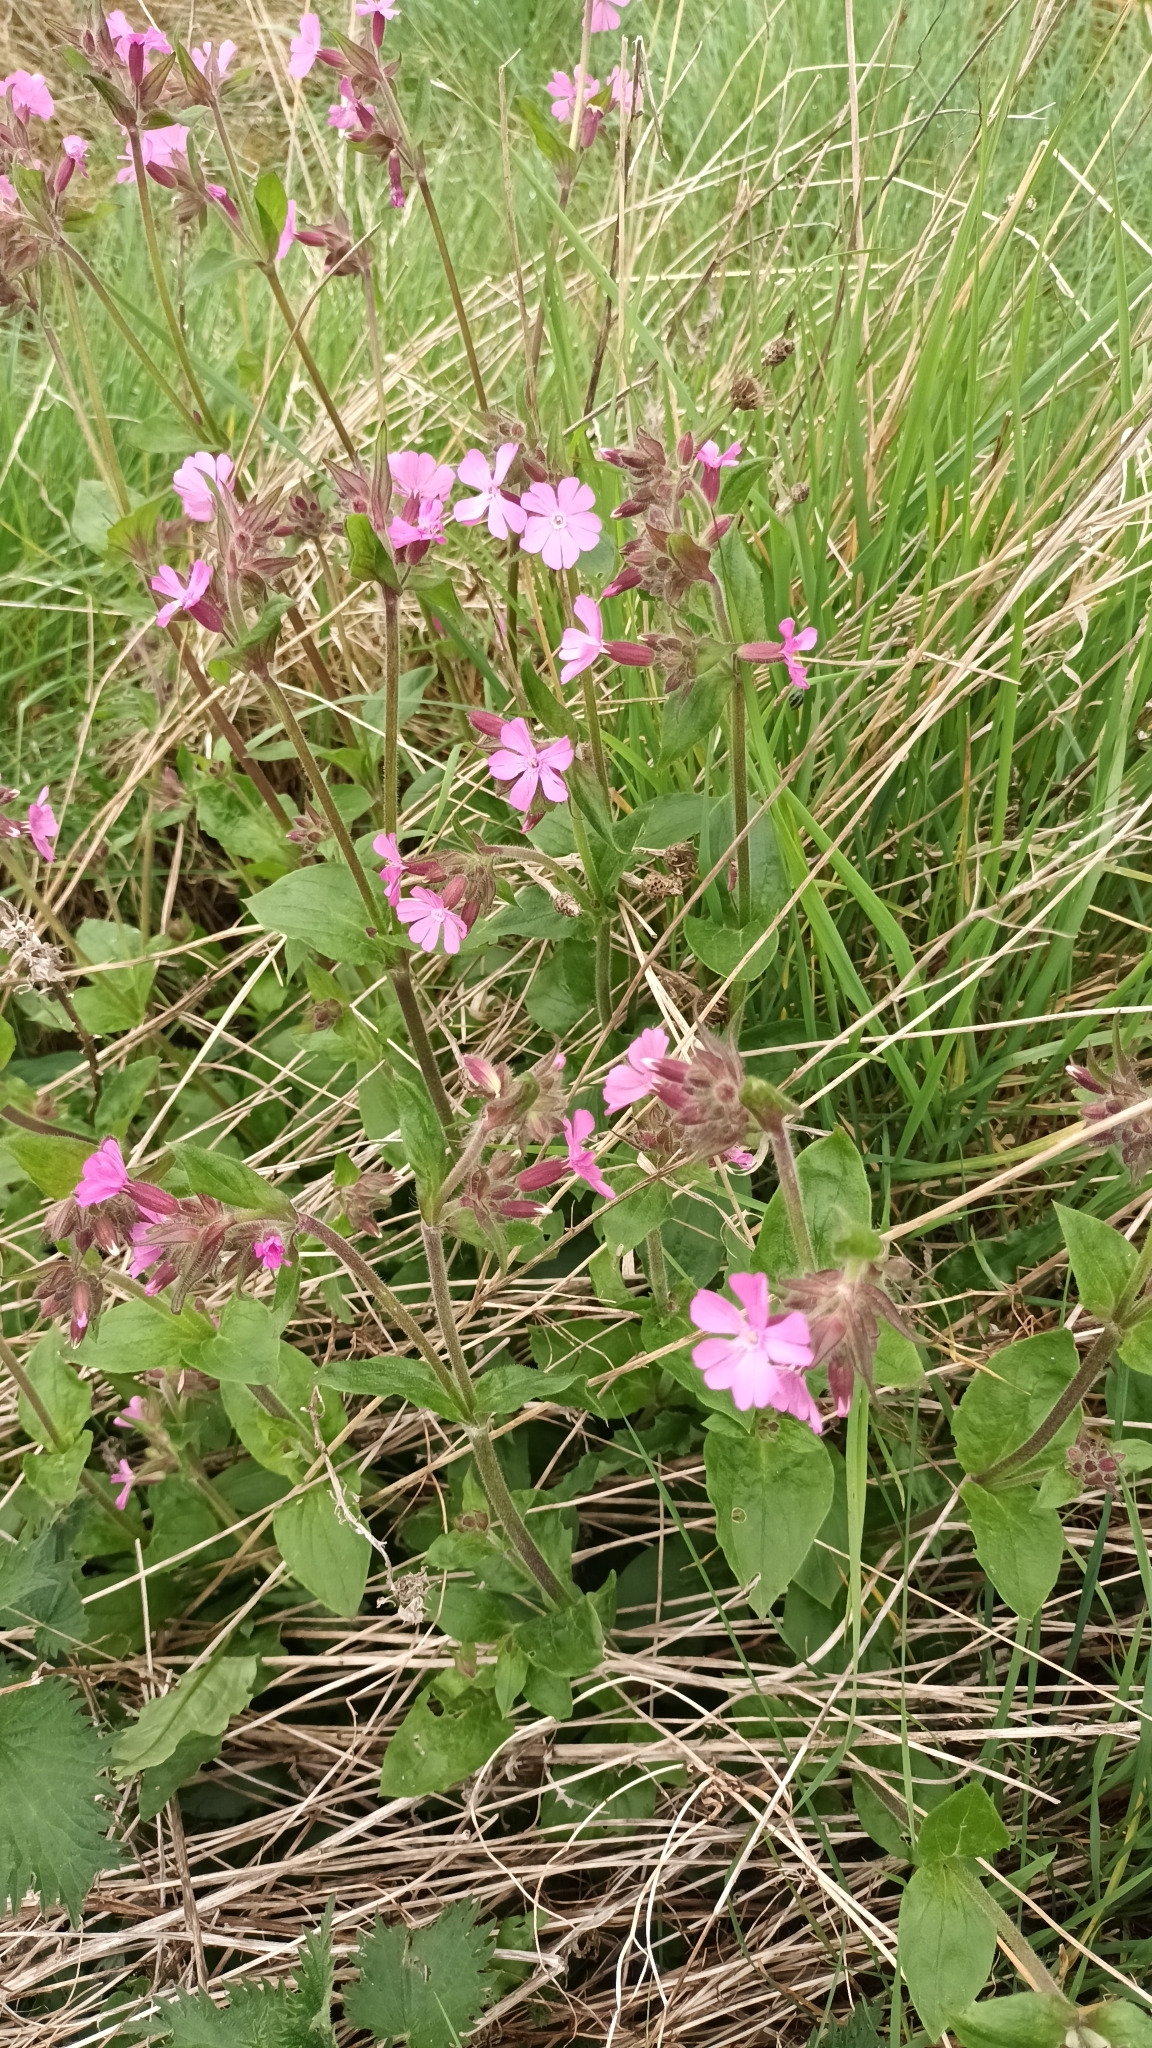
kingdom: Plantae
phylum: Tracheophyta
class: Magnoliopsida
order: Caryophyllales
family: Caryophyllaceae
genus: Silene
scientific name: Silene dioica
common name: Red campion
